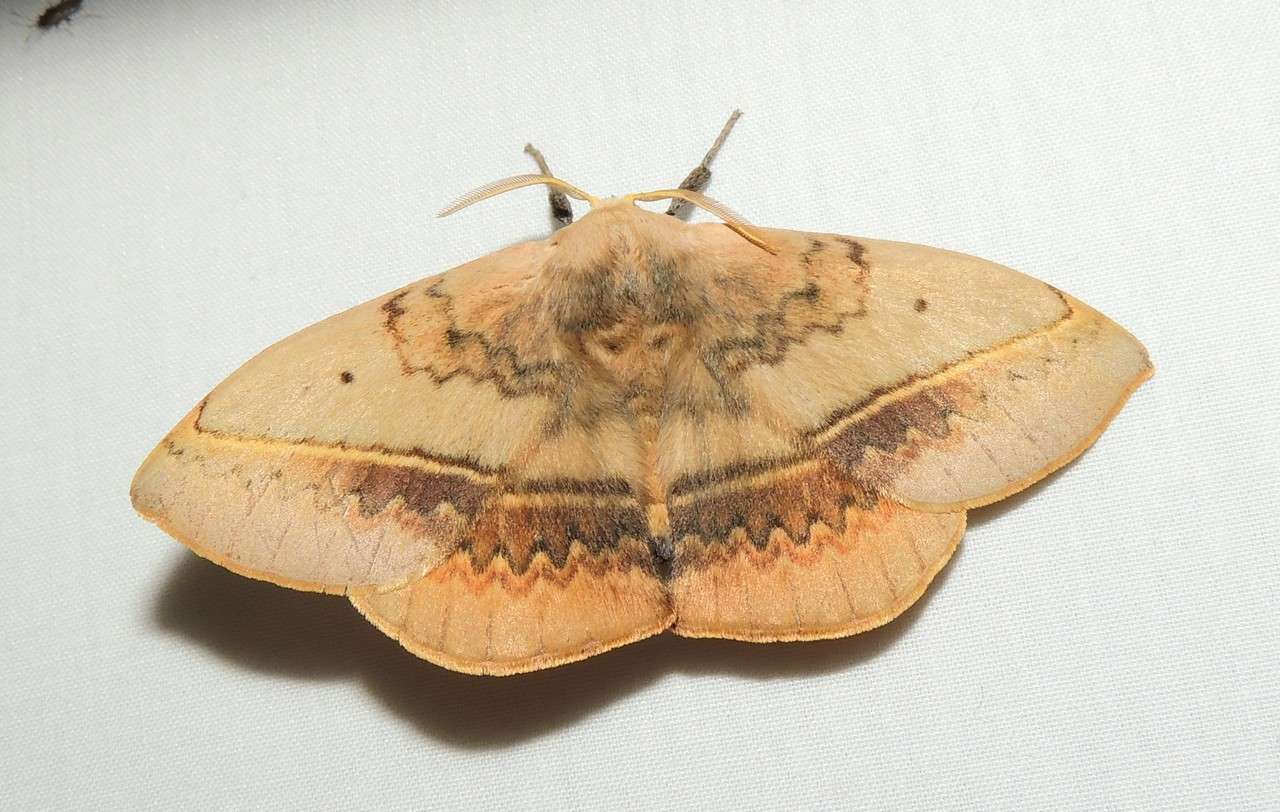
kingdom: Animalia
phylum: Arthropoda
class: Insecta
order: Lepidoptera
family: Anthelidae
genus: Anthela
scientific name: Anthela varia
